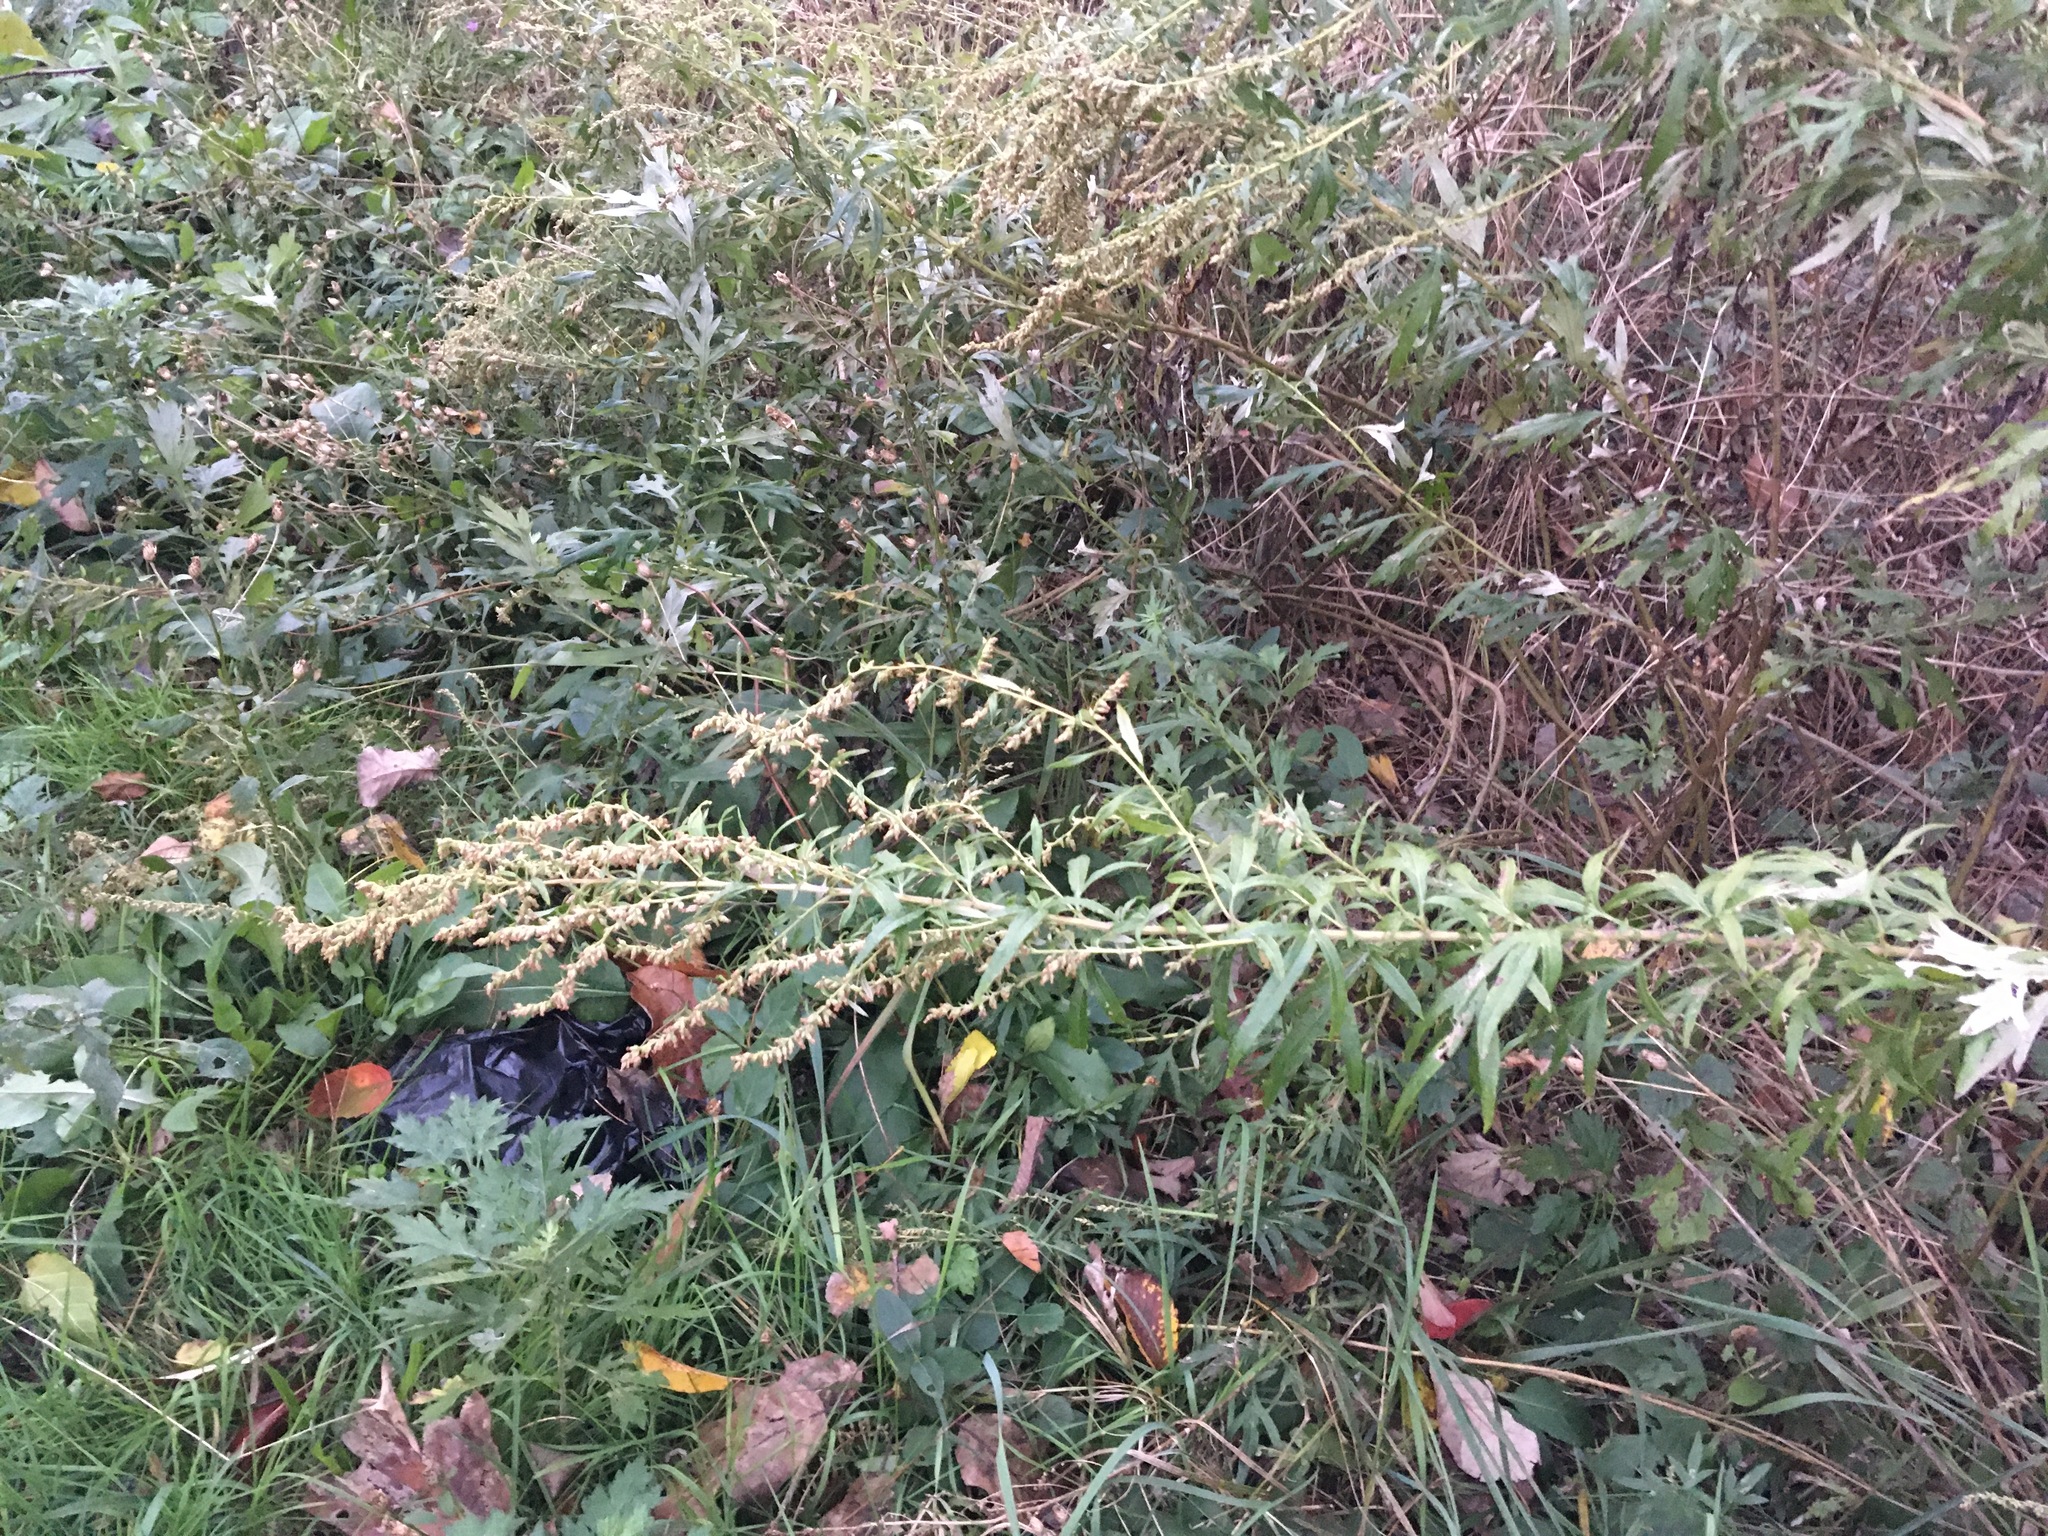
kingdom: Plantae
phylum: Tracheophyta
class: Magnoliopsida
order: Asterales
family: Asteraceae
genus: Artemisia
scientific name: Artemisia vulgaris
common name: Mugwort
